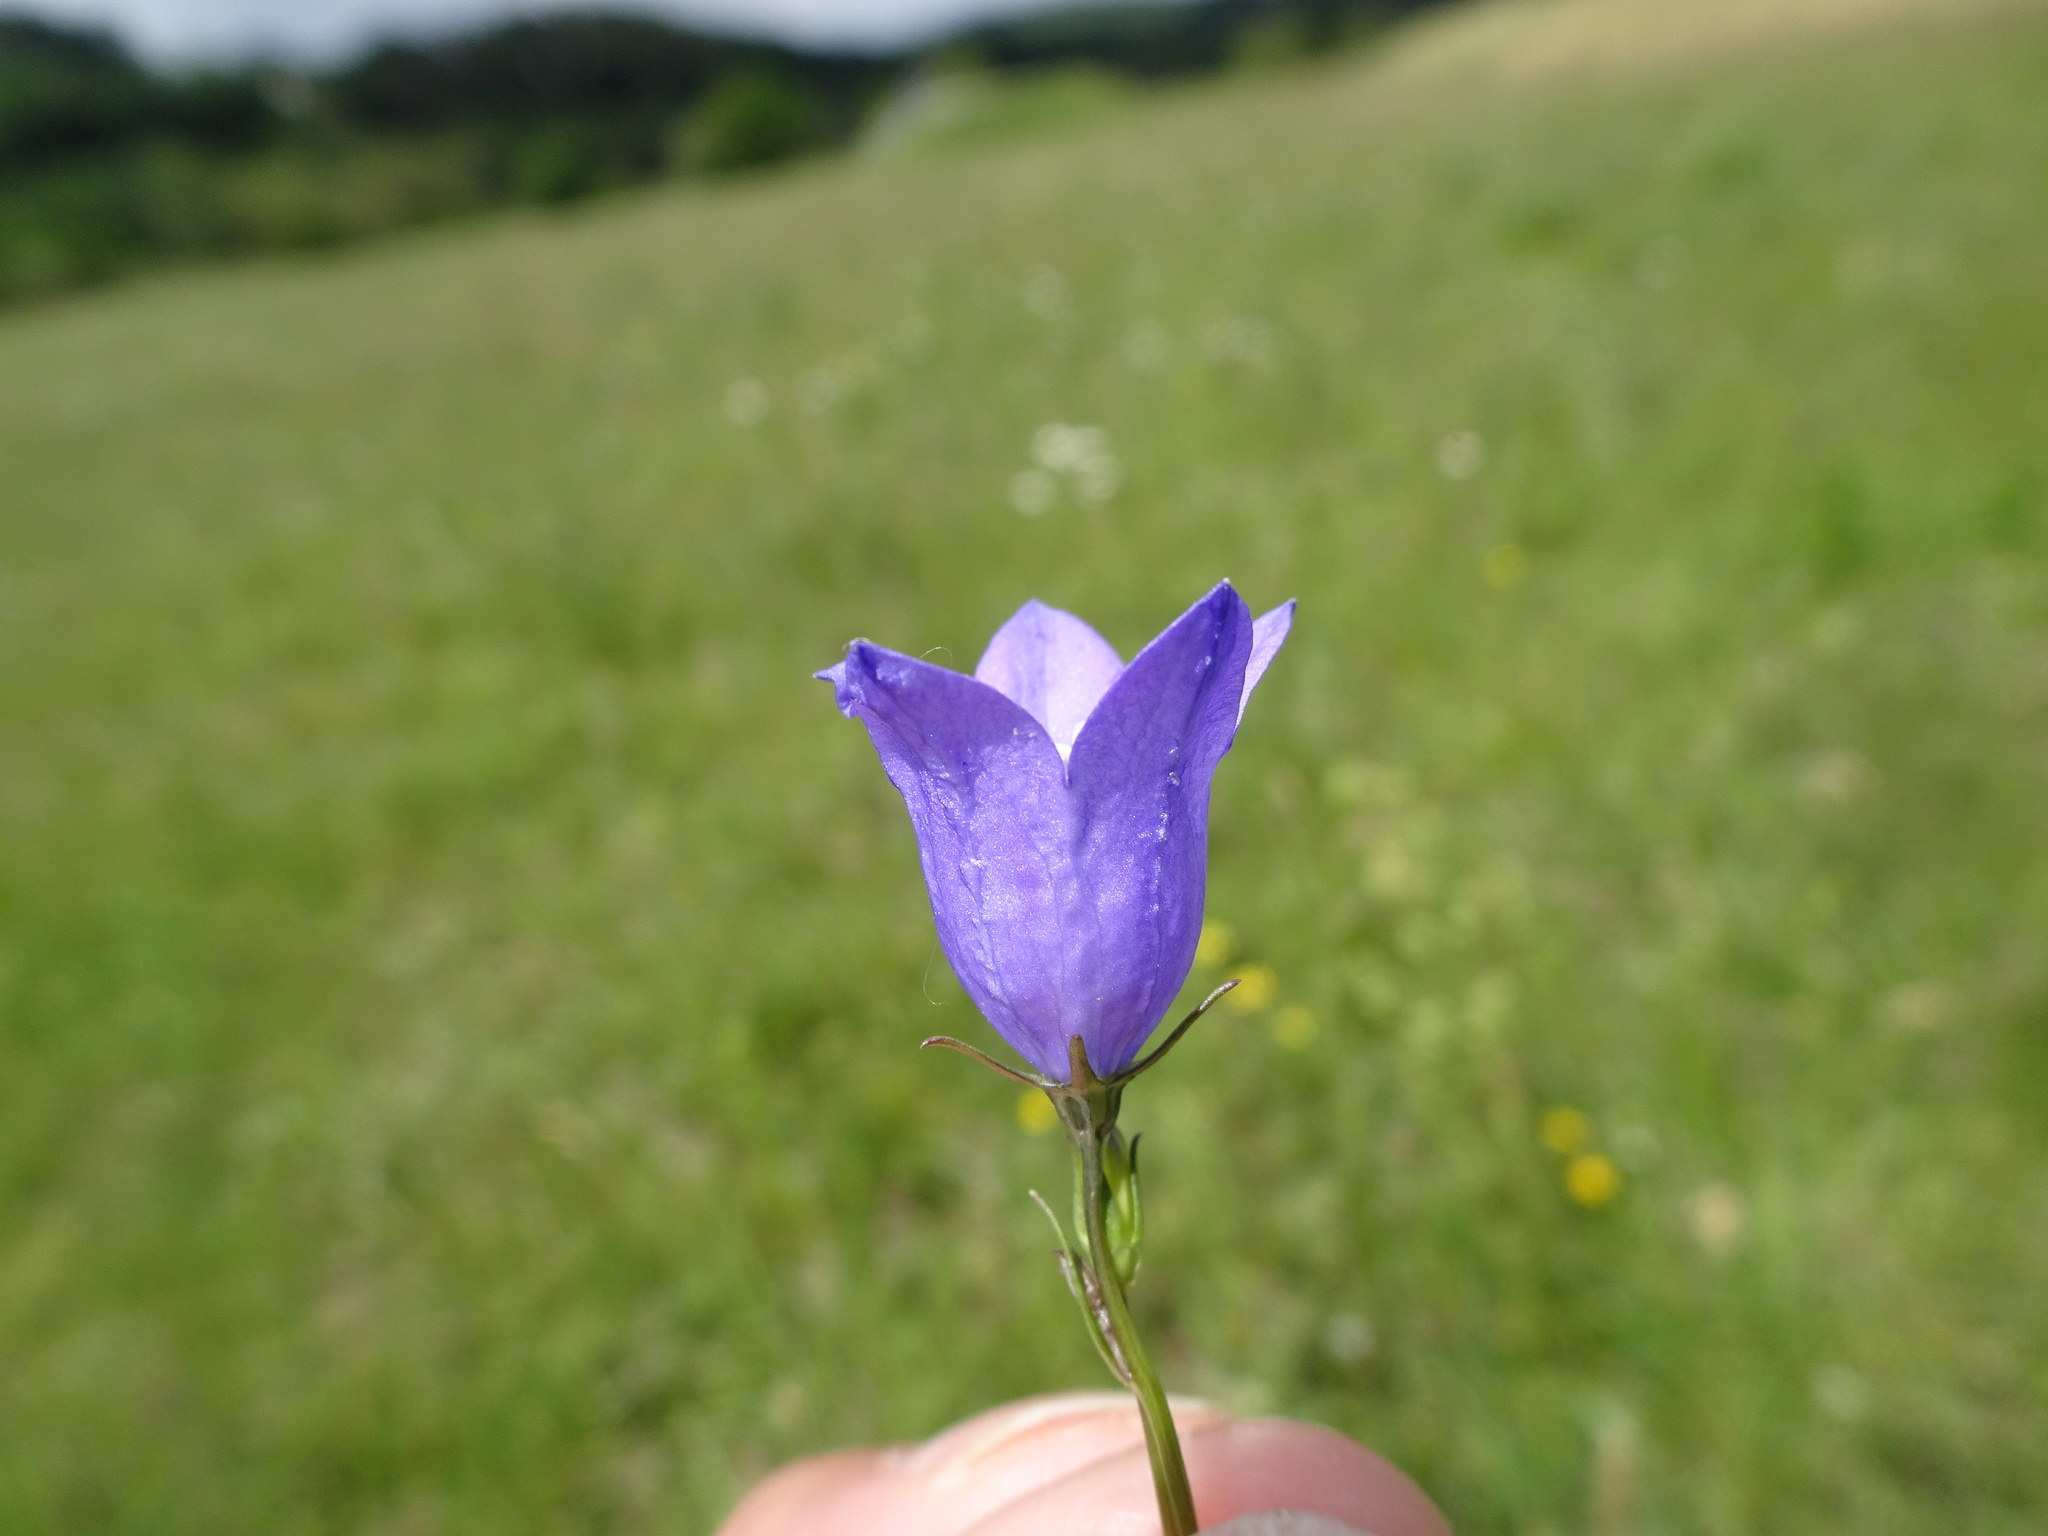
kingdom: Plantae
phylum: Tracheophyta
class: Magnoliopsida
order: Asterales
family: Campanulaceae
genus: Campanula
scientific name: Campanula rotundifolia
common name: Harebell
